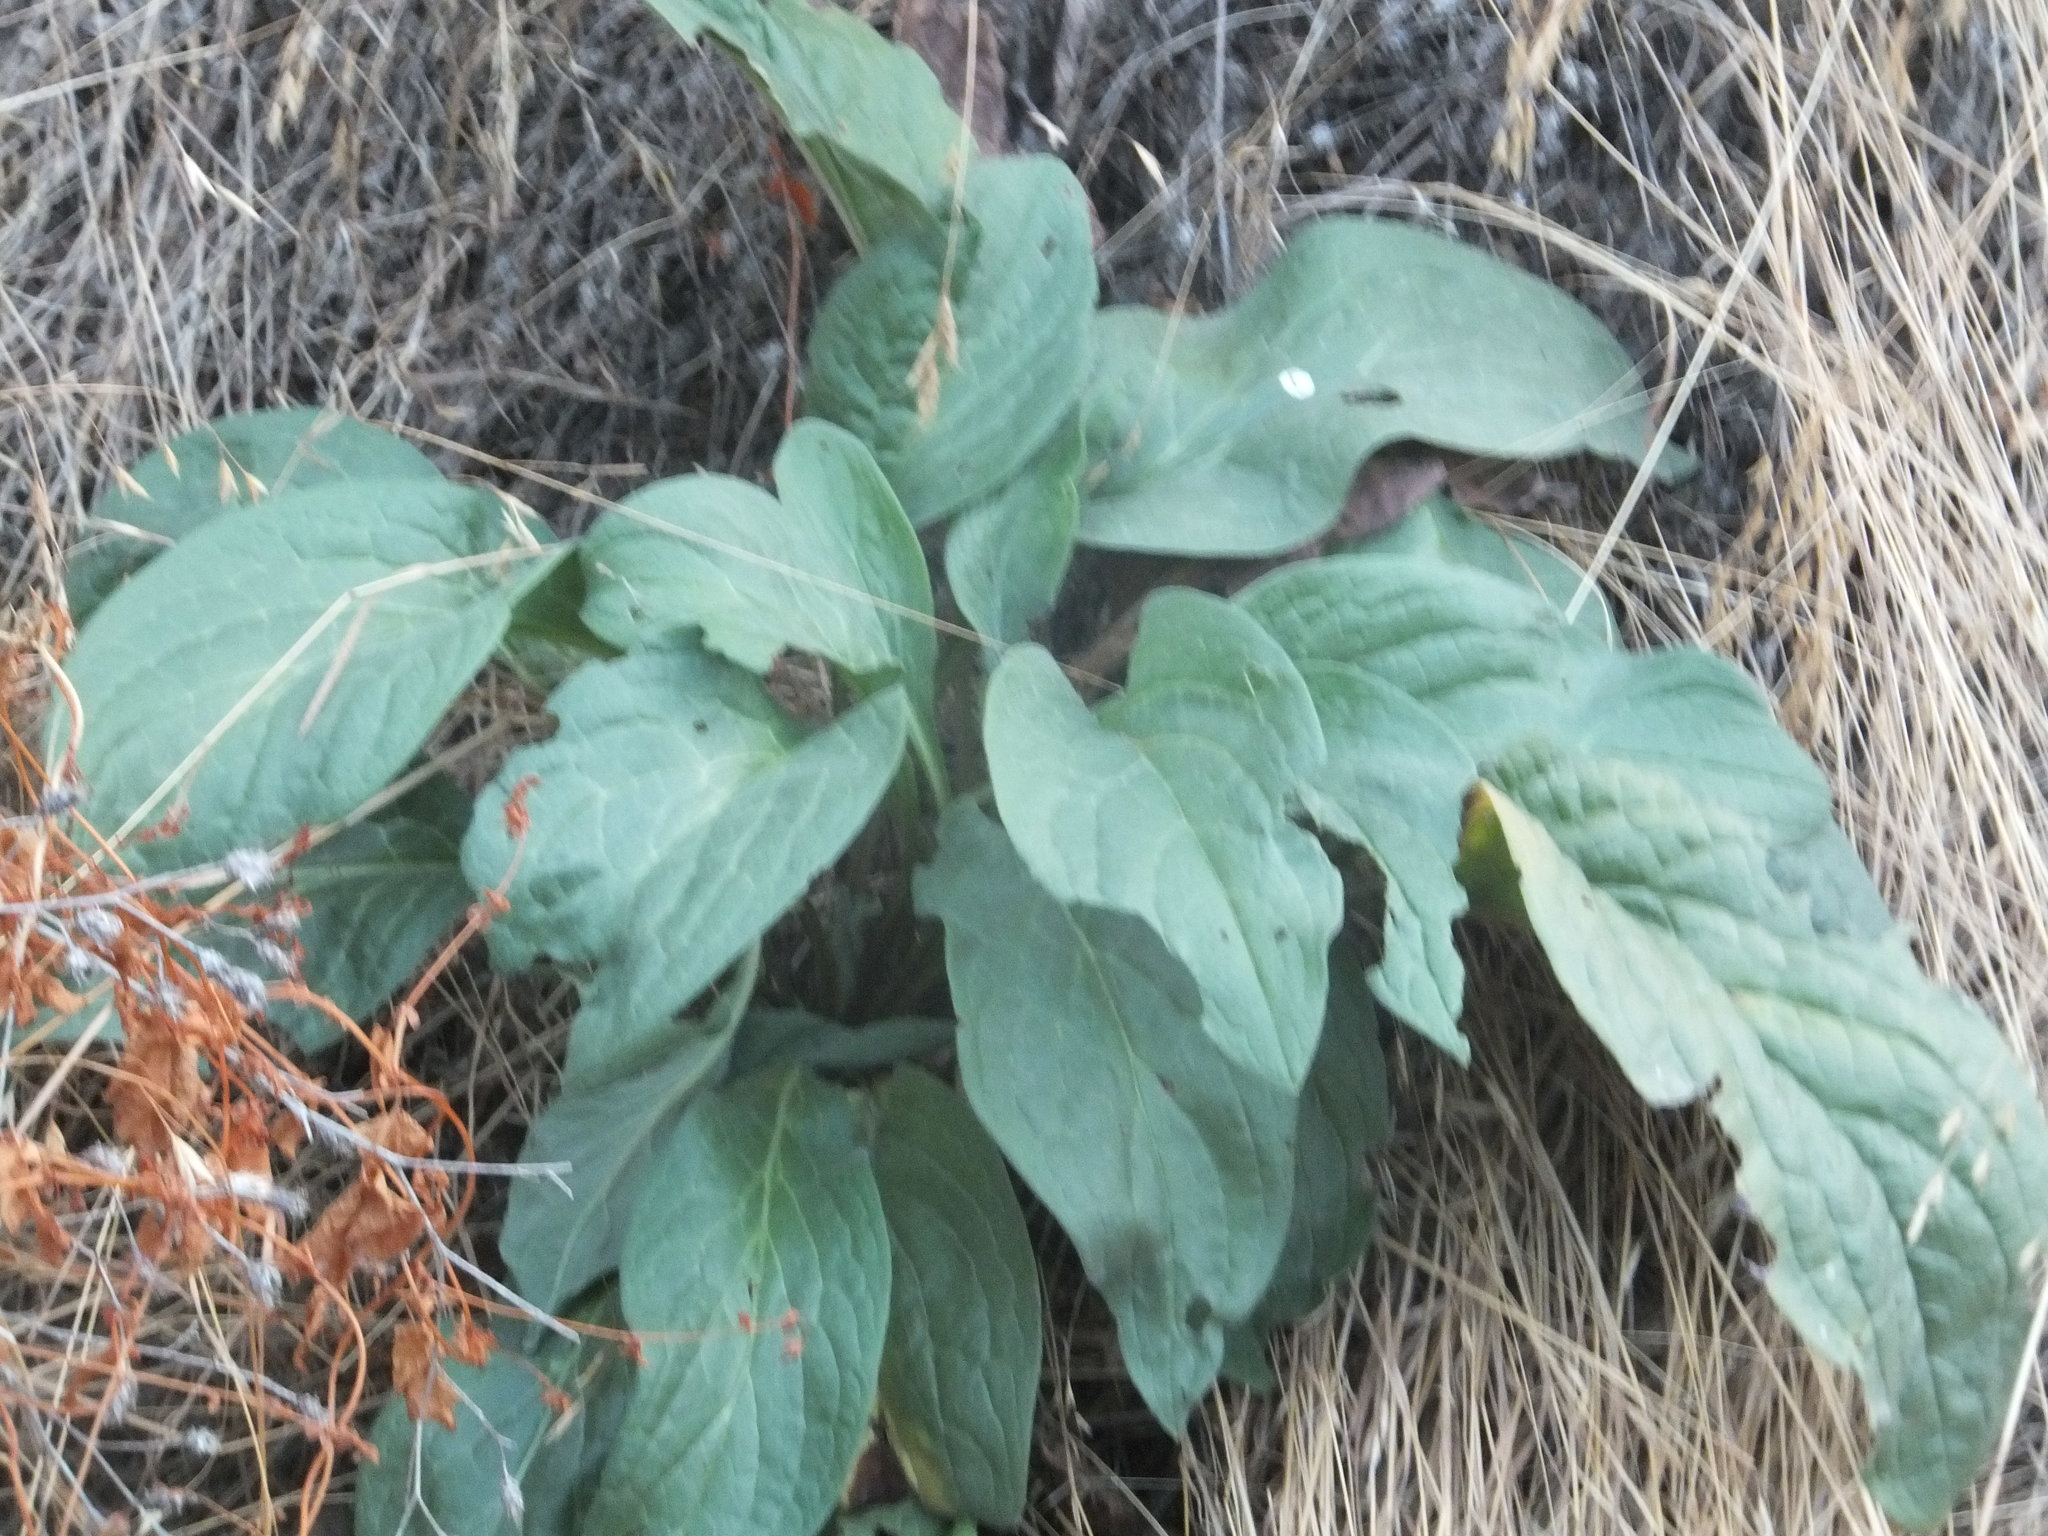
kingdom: Plantae
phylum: Tracheophyta
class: Magnoliopsida
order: Boraginales
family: Boraginaceae
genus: Cynoglossum
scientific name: Cynoglossum officinale
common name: Hound's-tongue
